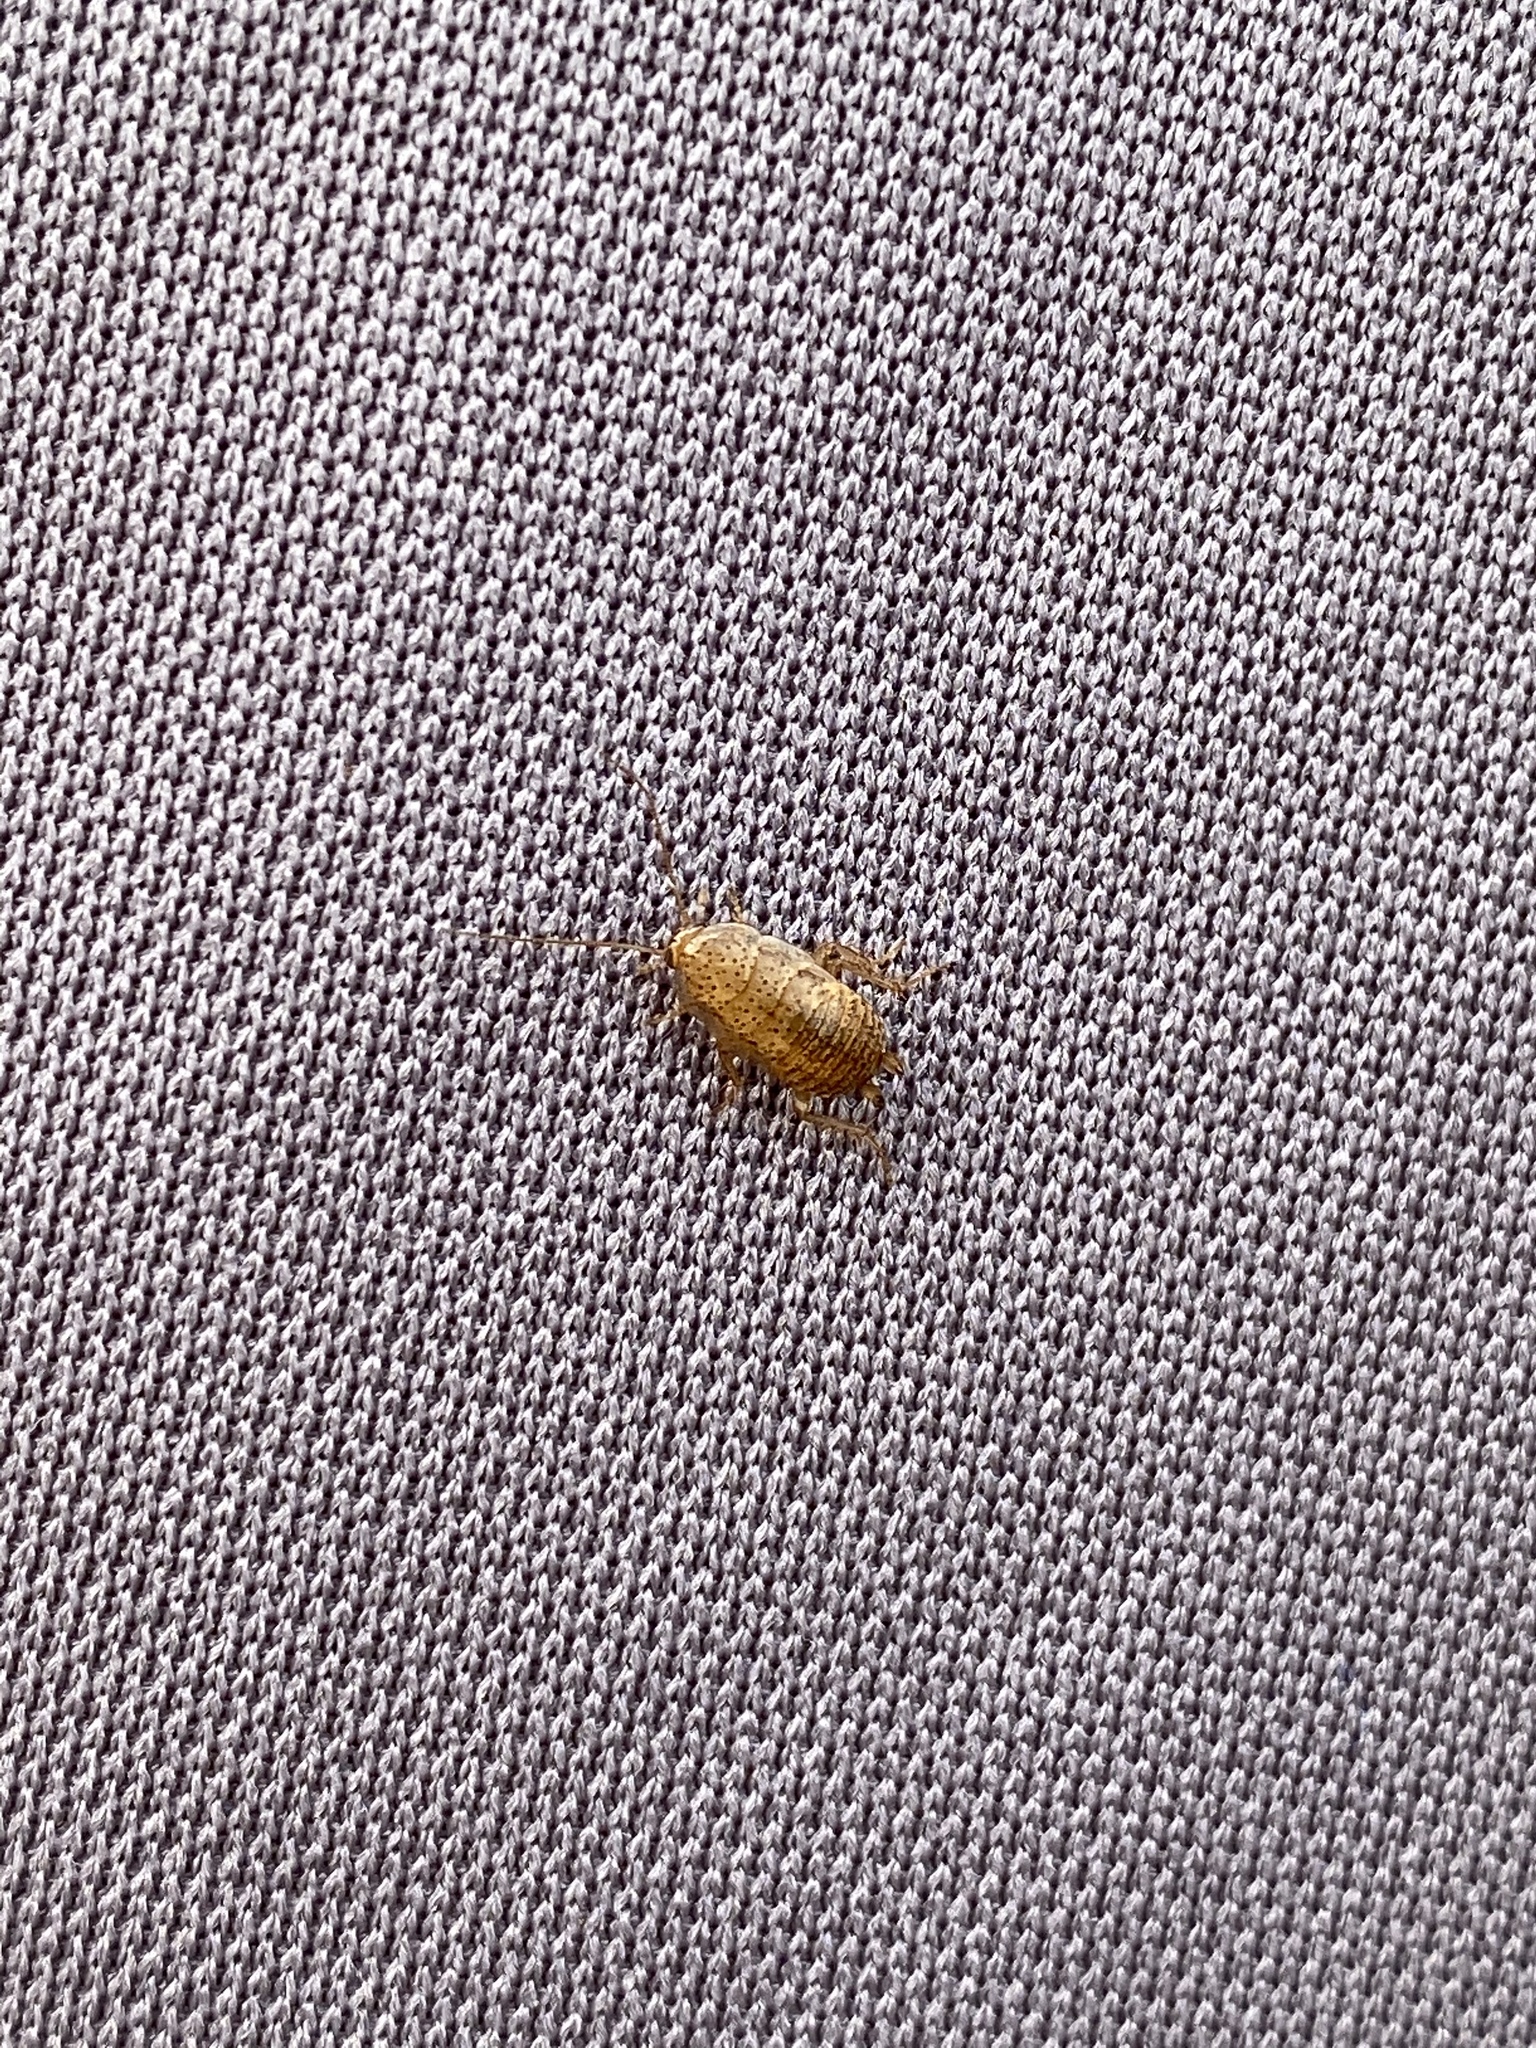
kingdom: Animalia
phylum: Arthropoda
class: Insecta
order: Blattodea
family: Ectobiidae
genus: Ectobius
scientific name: Ectobius pallidus
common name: Tawny cockroach
